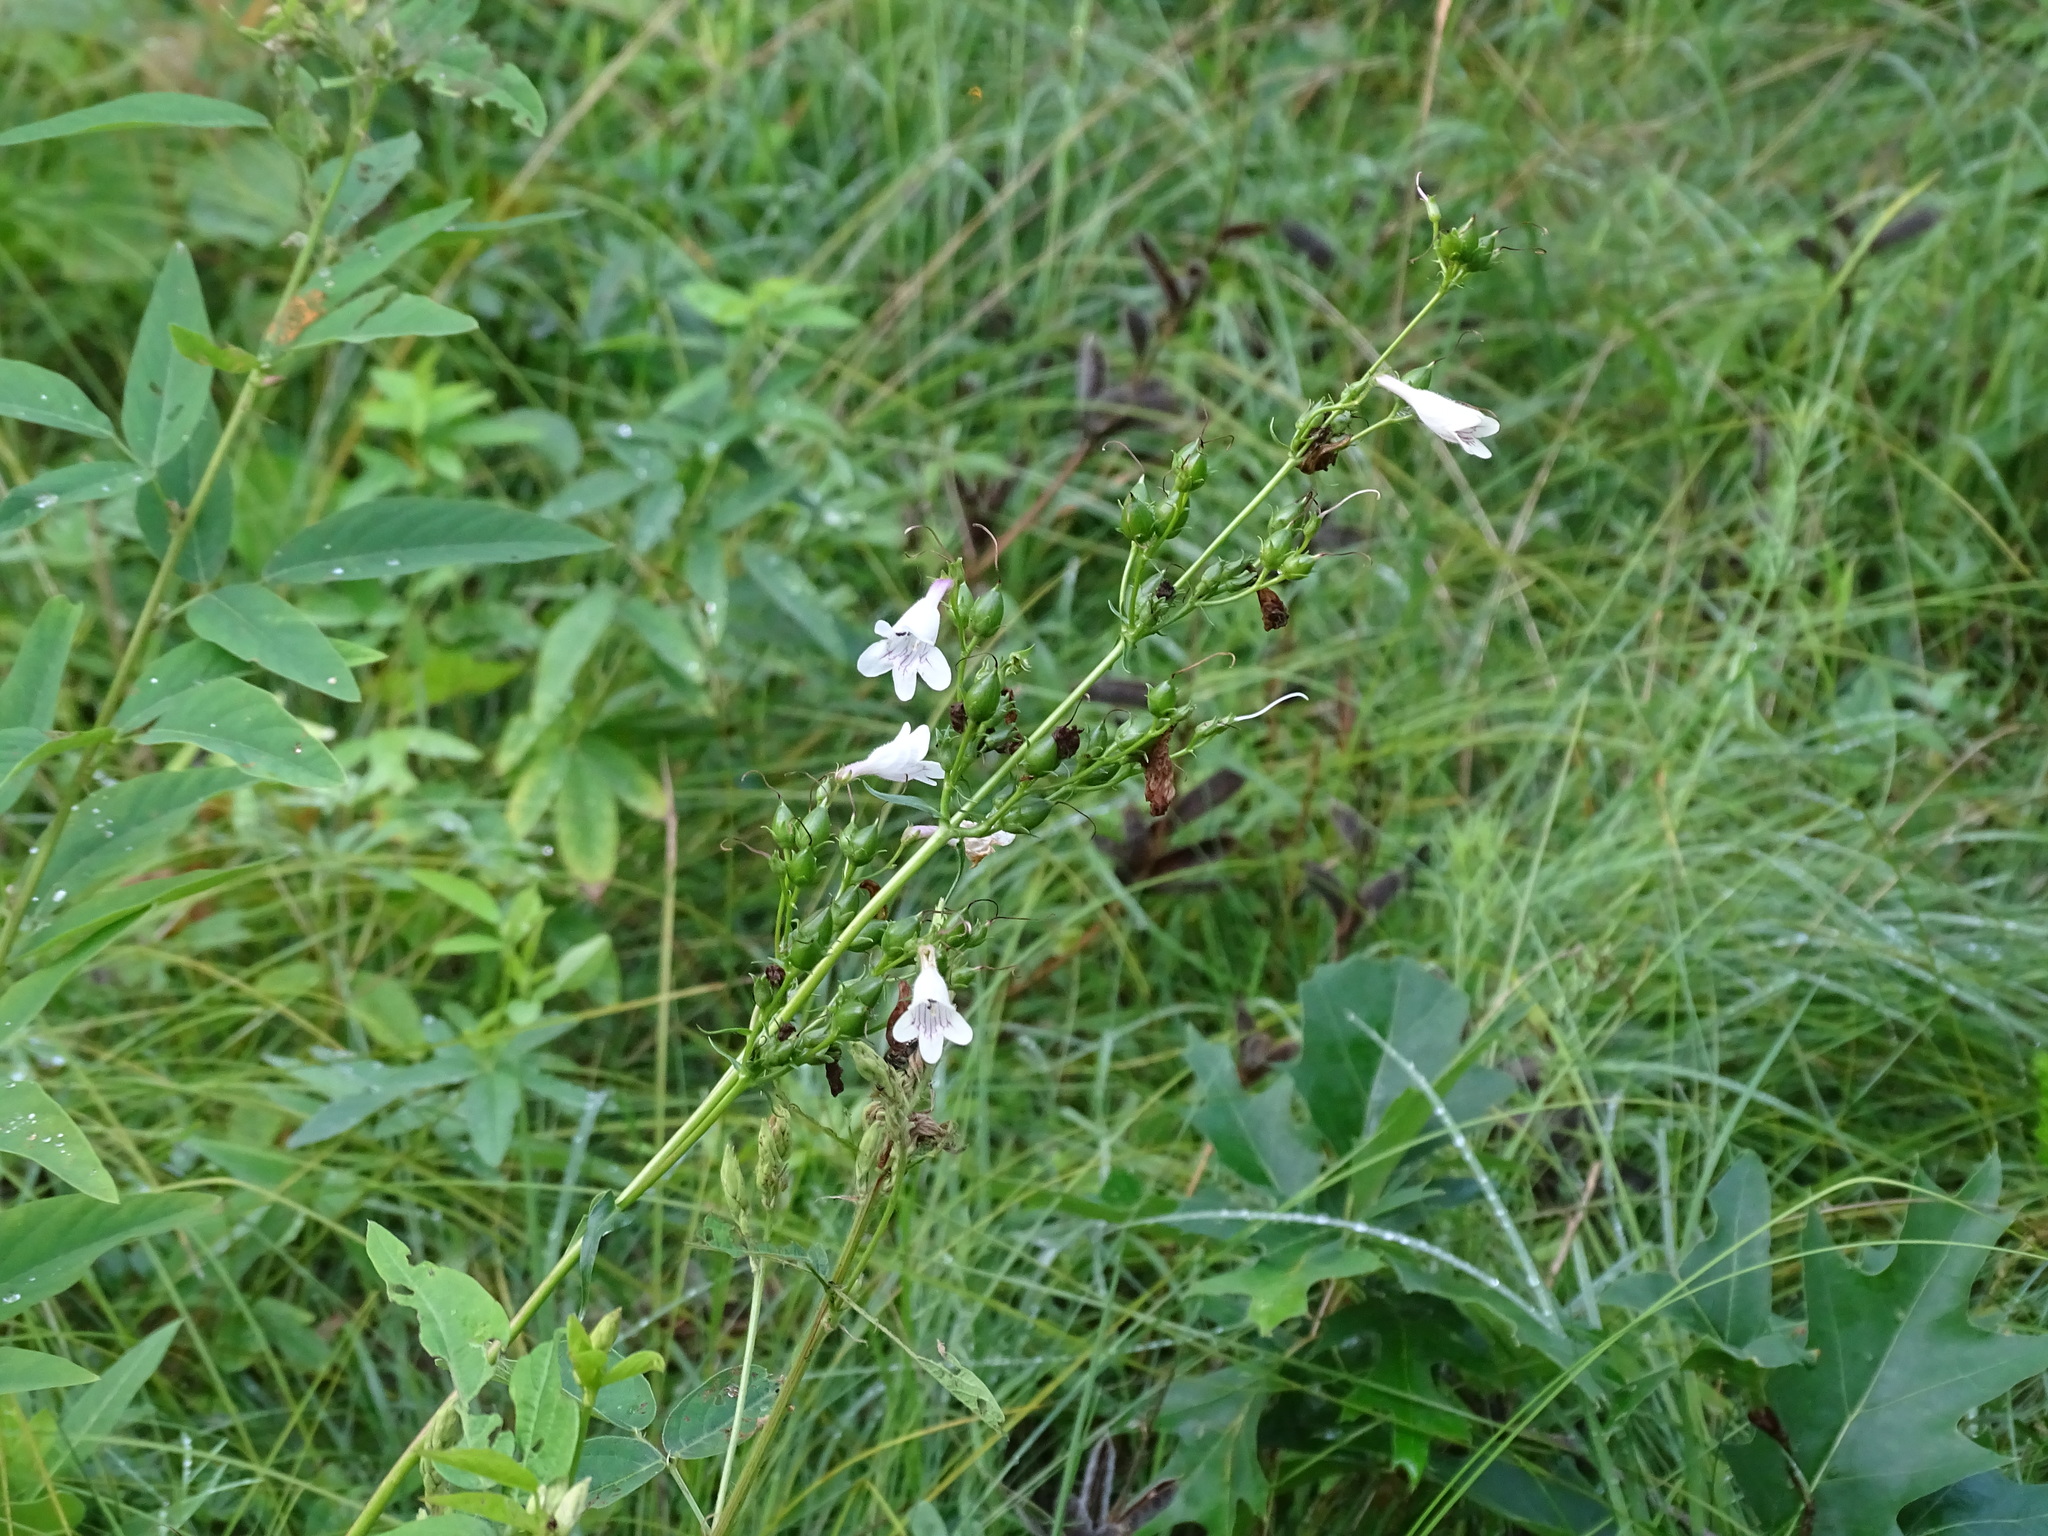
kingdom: Plantae
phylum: Tracheophyta
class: Magnoliopsida
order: Lamiales
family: Plantaginaceae
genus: Penstemon
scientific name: Penstemon digitalis
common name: Foxglove beardtongue
